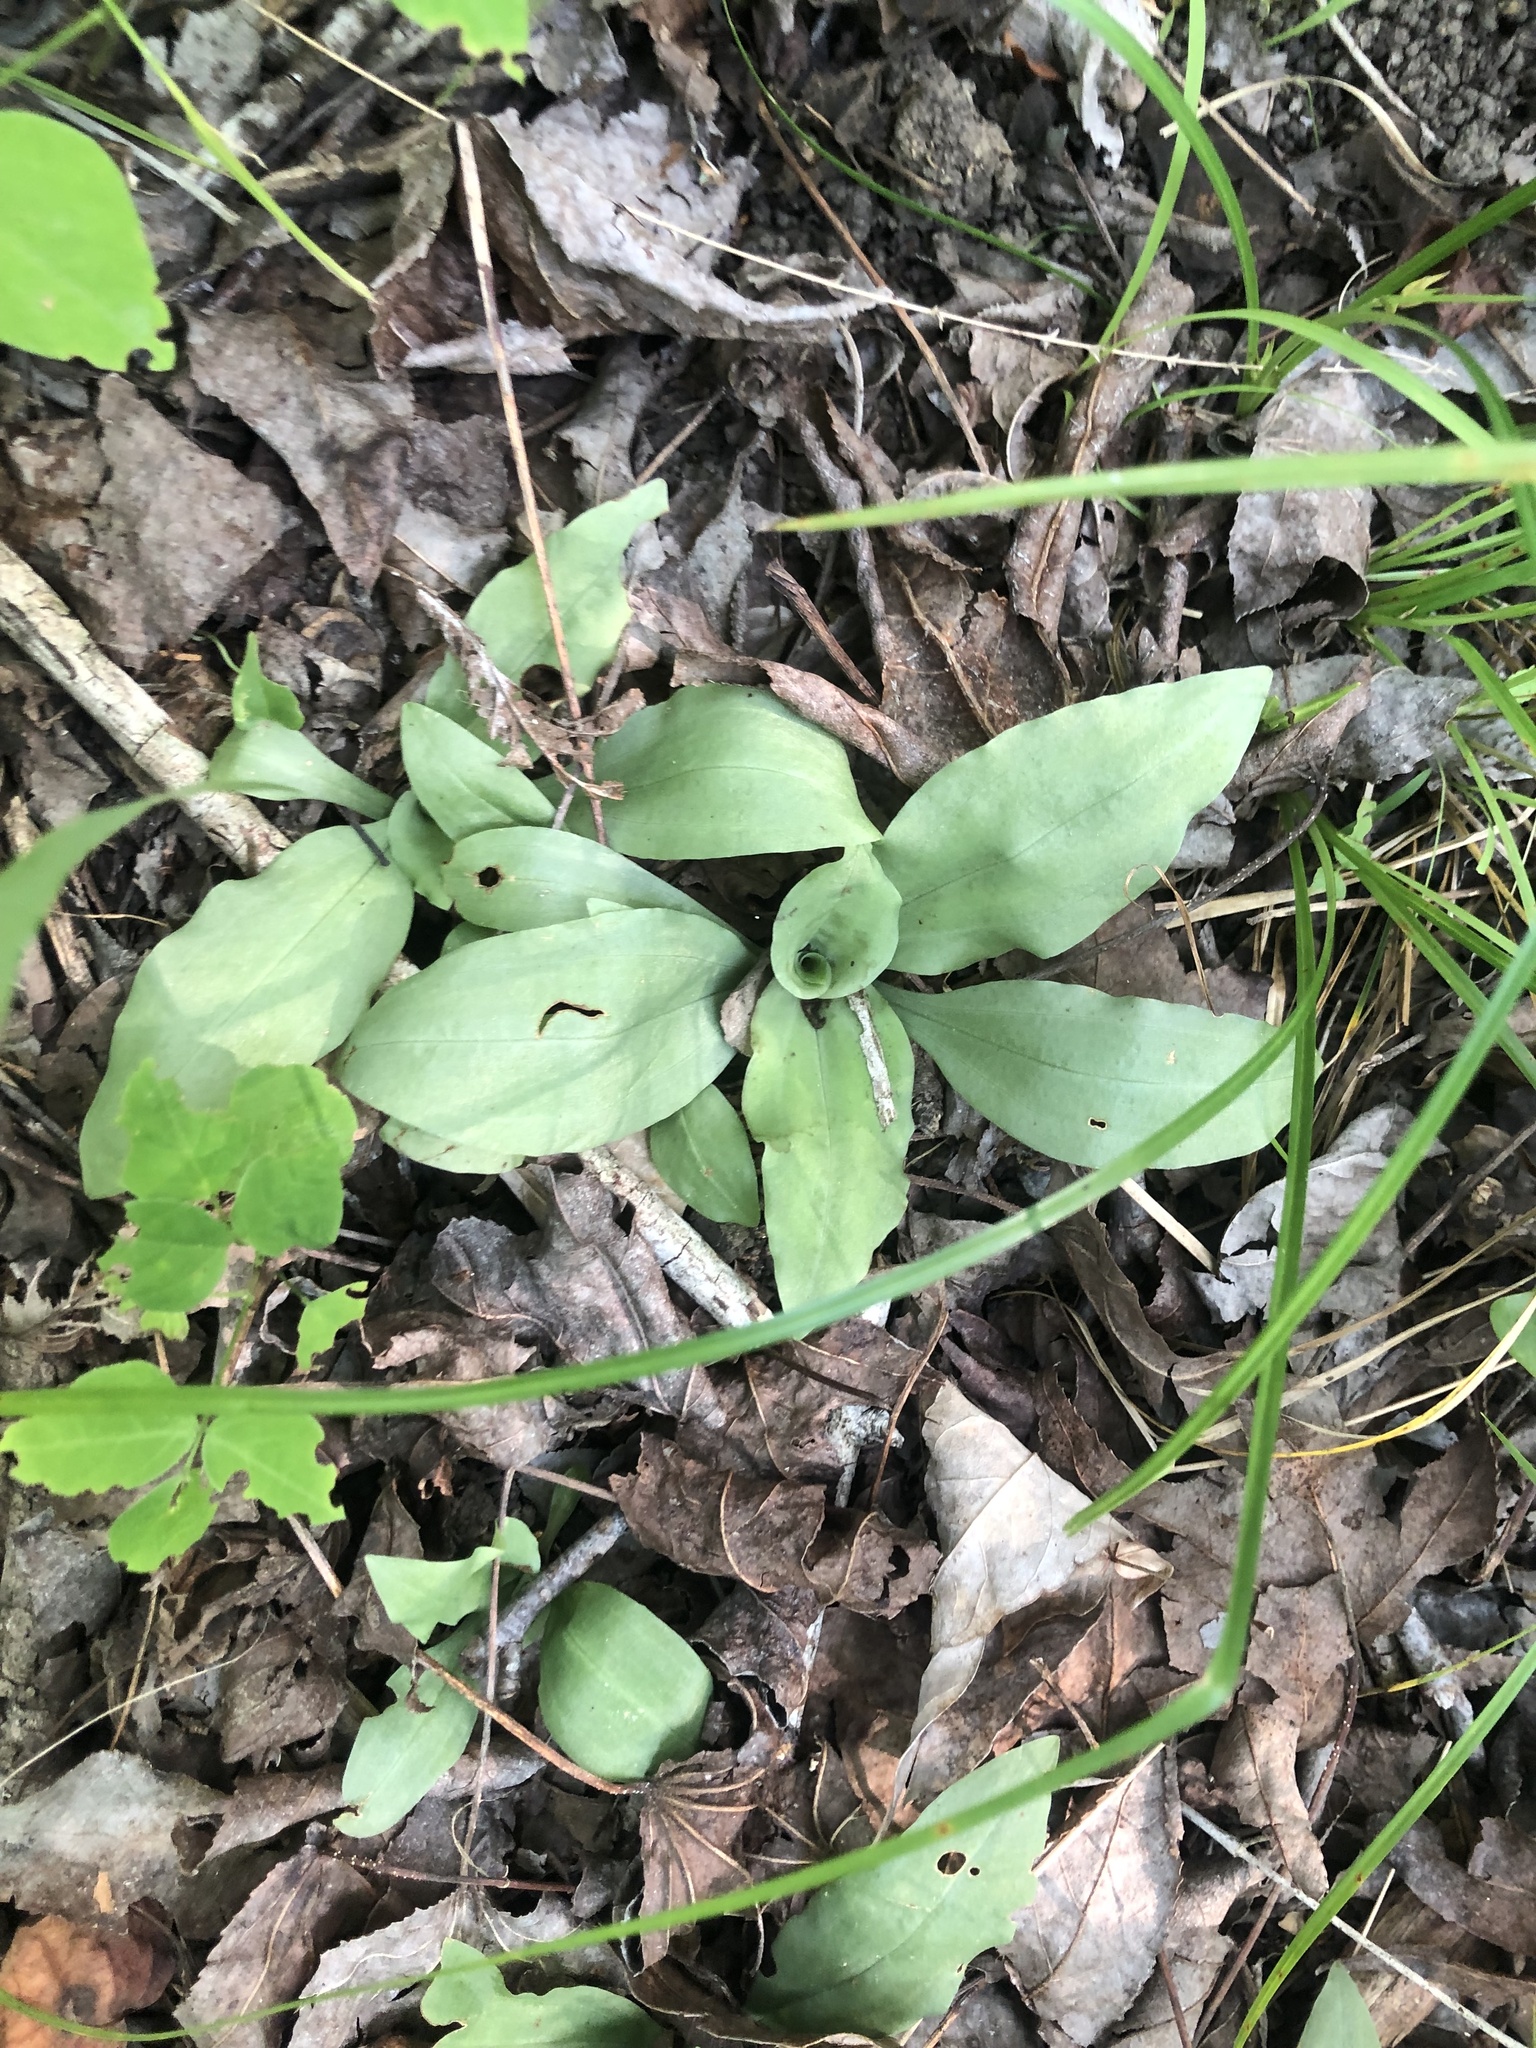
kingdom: Plantae
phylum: Tracheophyta
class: Liliopsida
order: Asparagales
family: Orchidaceae
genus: Ponthieva
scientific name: Ponthieva racemosa
